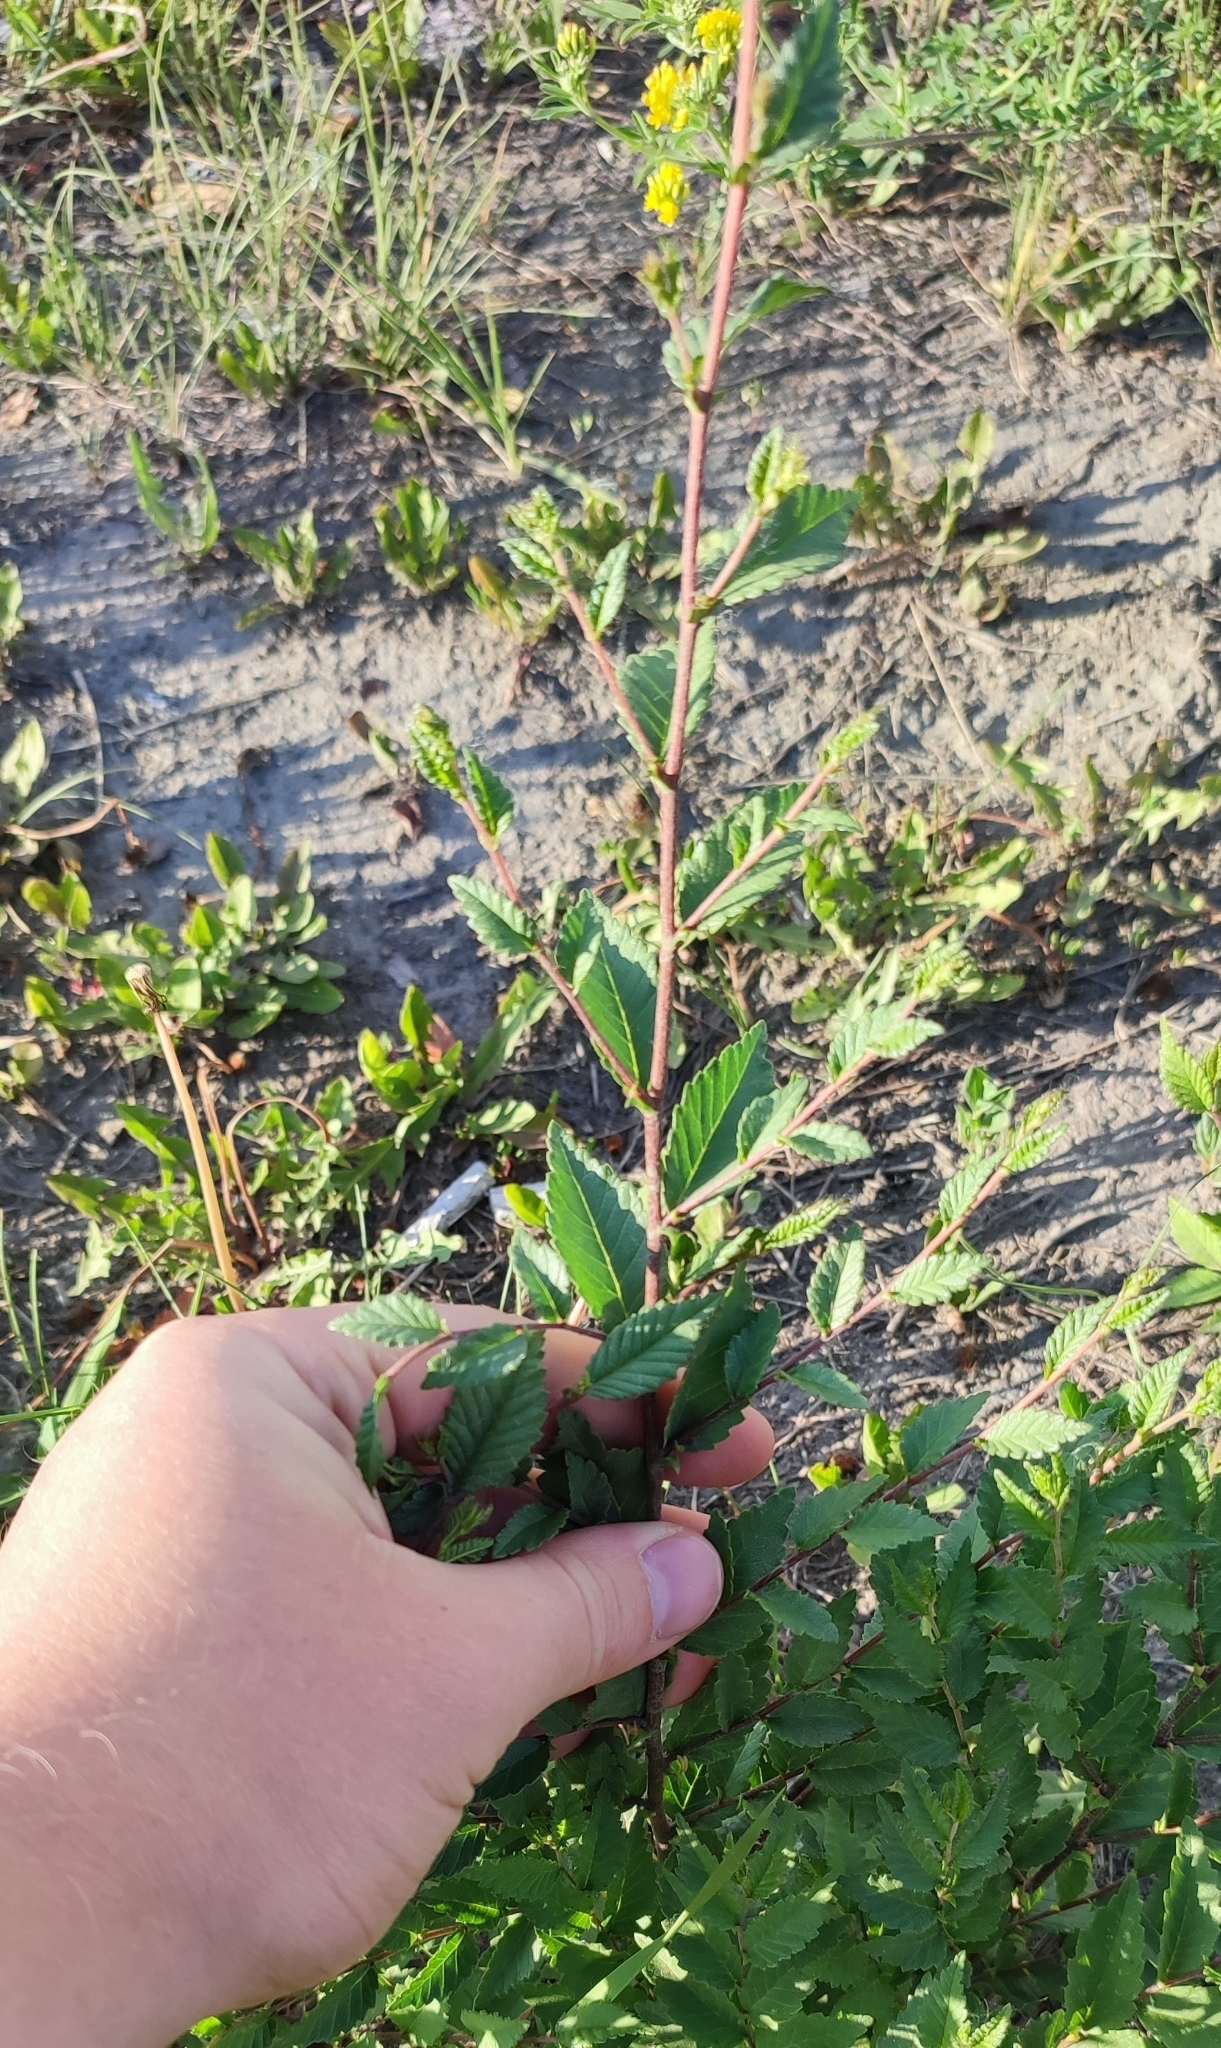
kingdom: Plantae
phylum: Tracheophyta
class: Magnoliopsida
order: Rosales
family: Ulmaceae
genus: Ulmus
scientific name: Ulmus pumila
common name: Siberian elm
